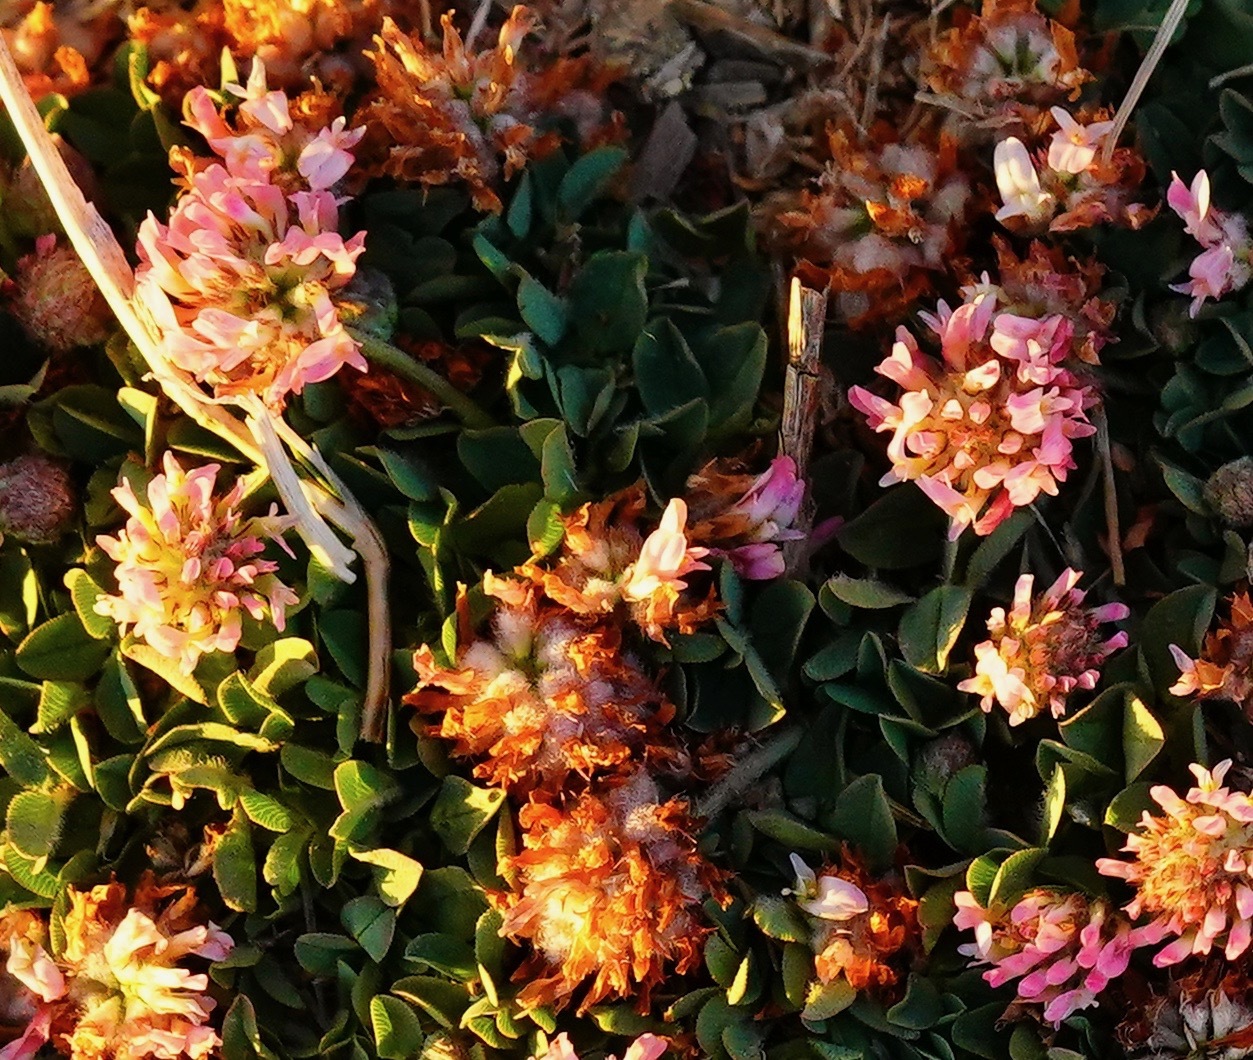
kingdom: Plantae
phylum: Tracheophyta
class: Magnoliopsida
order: Fabales
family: Fabaceae
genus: Trifolium
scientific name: Trifolium fragiferum
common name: Strawberry clover
